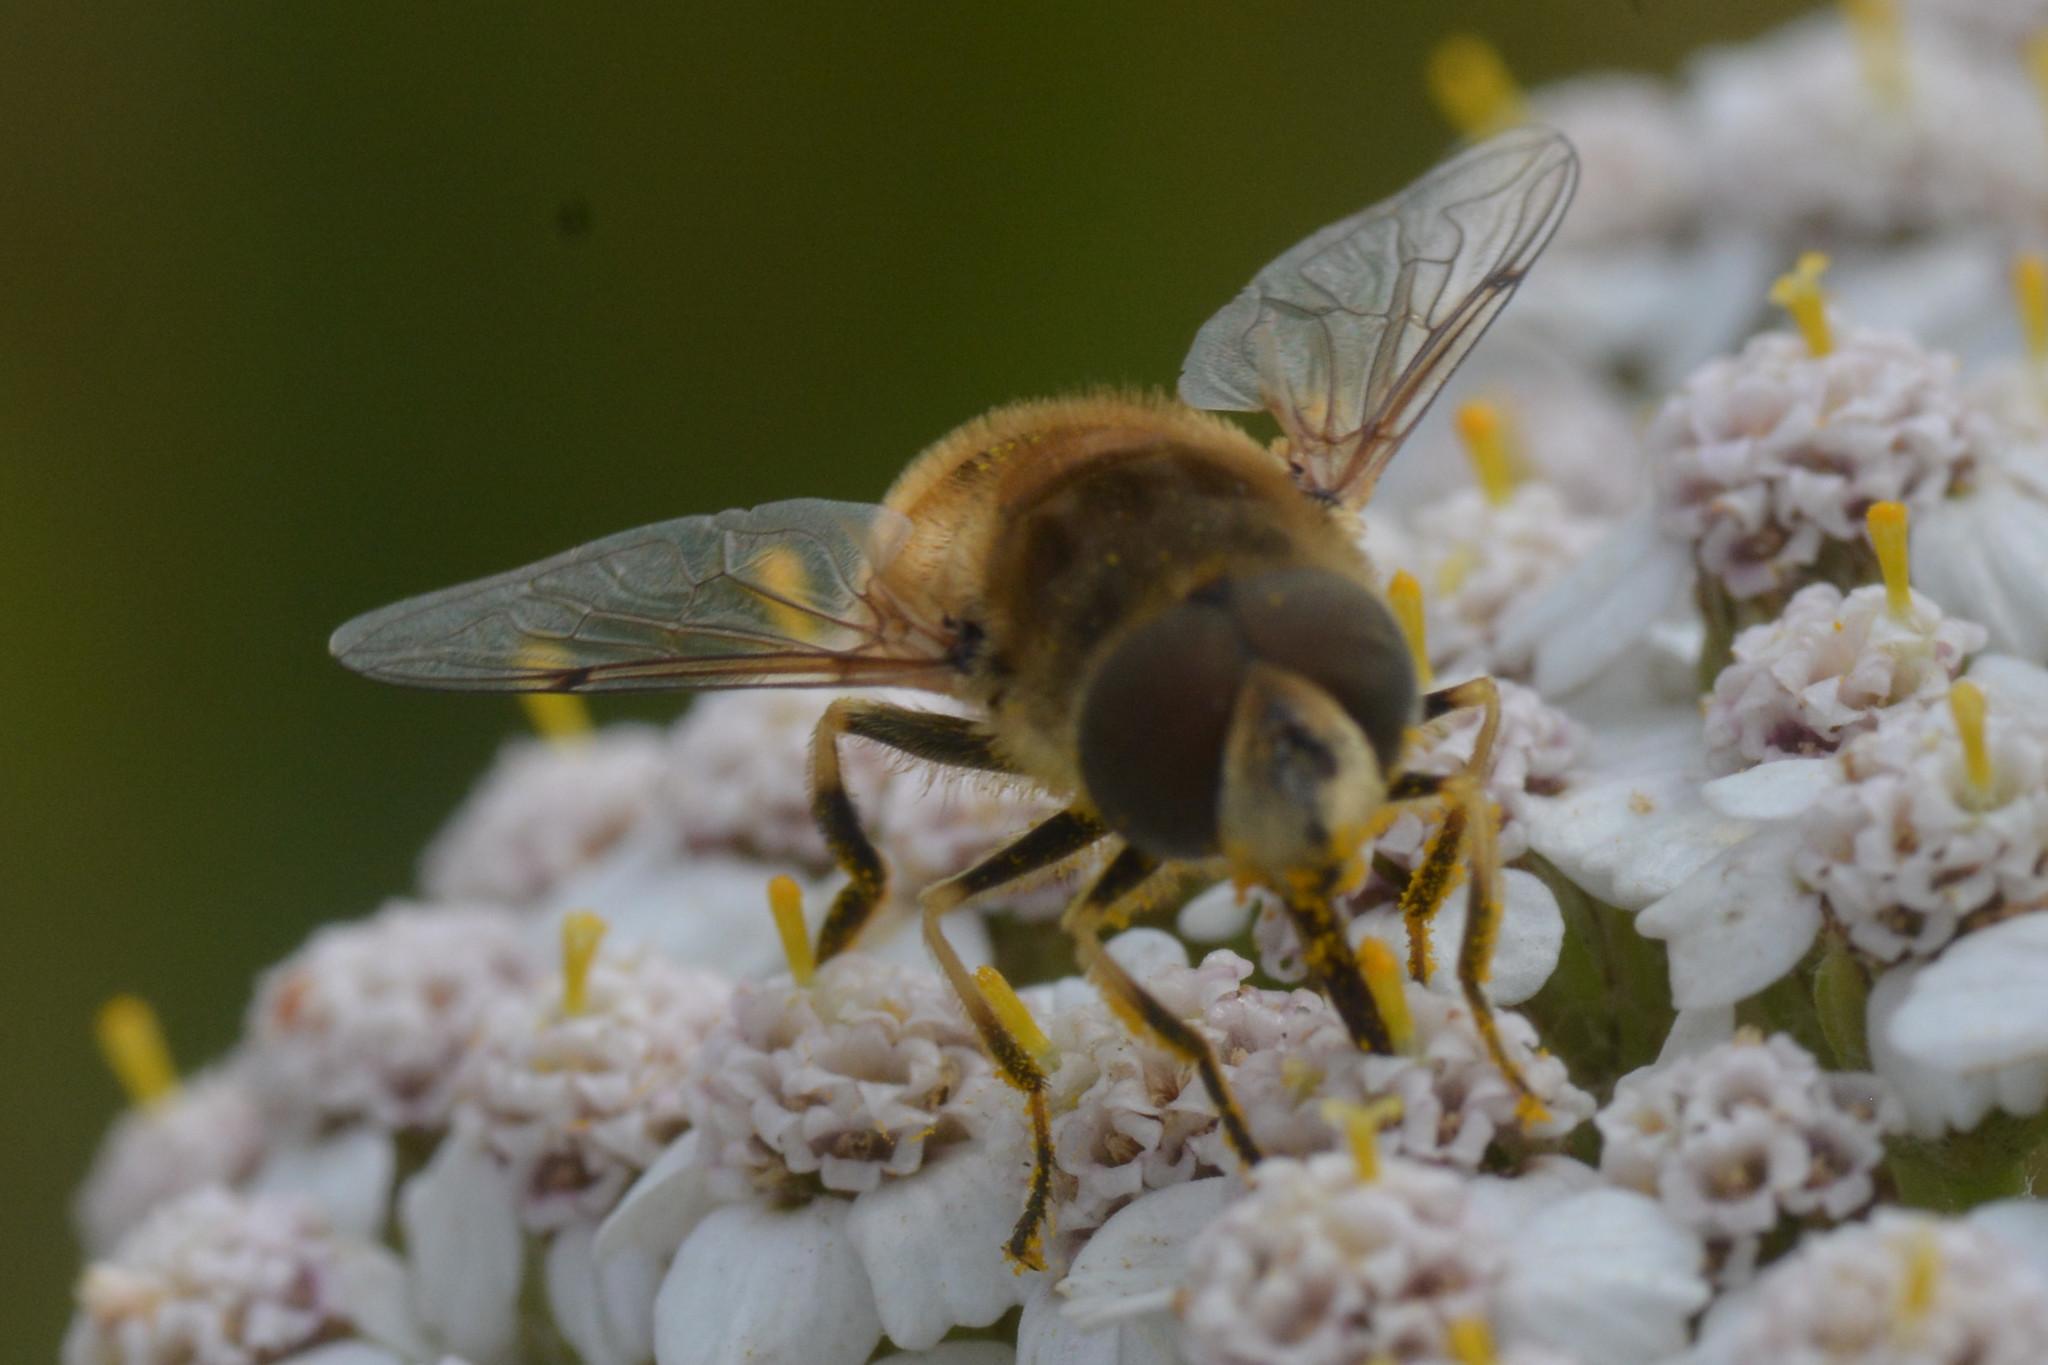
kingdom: Animalia
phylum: Arthropoda
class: Insecta
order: Diptera
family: Syrphidae
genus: Eristalis
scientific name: Eristalis arbustorum
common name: Hover fly
